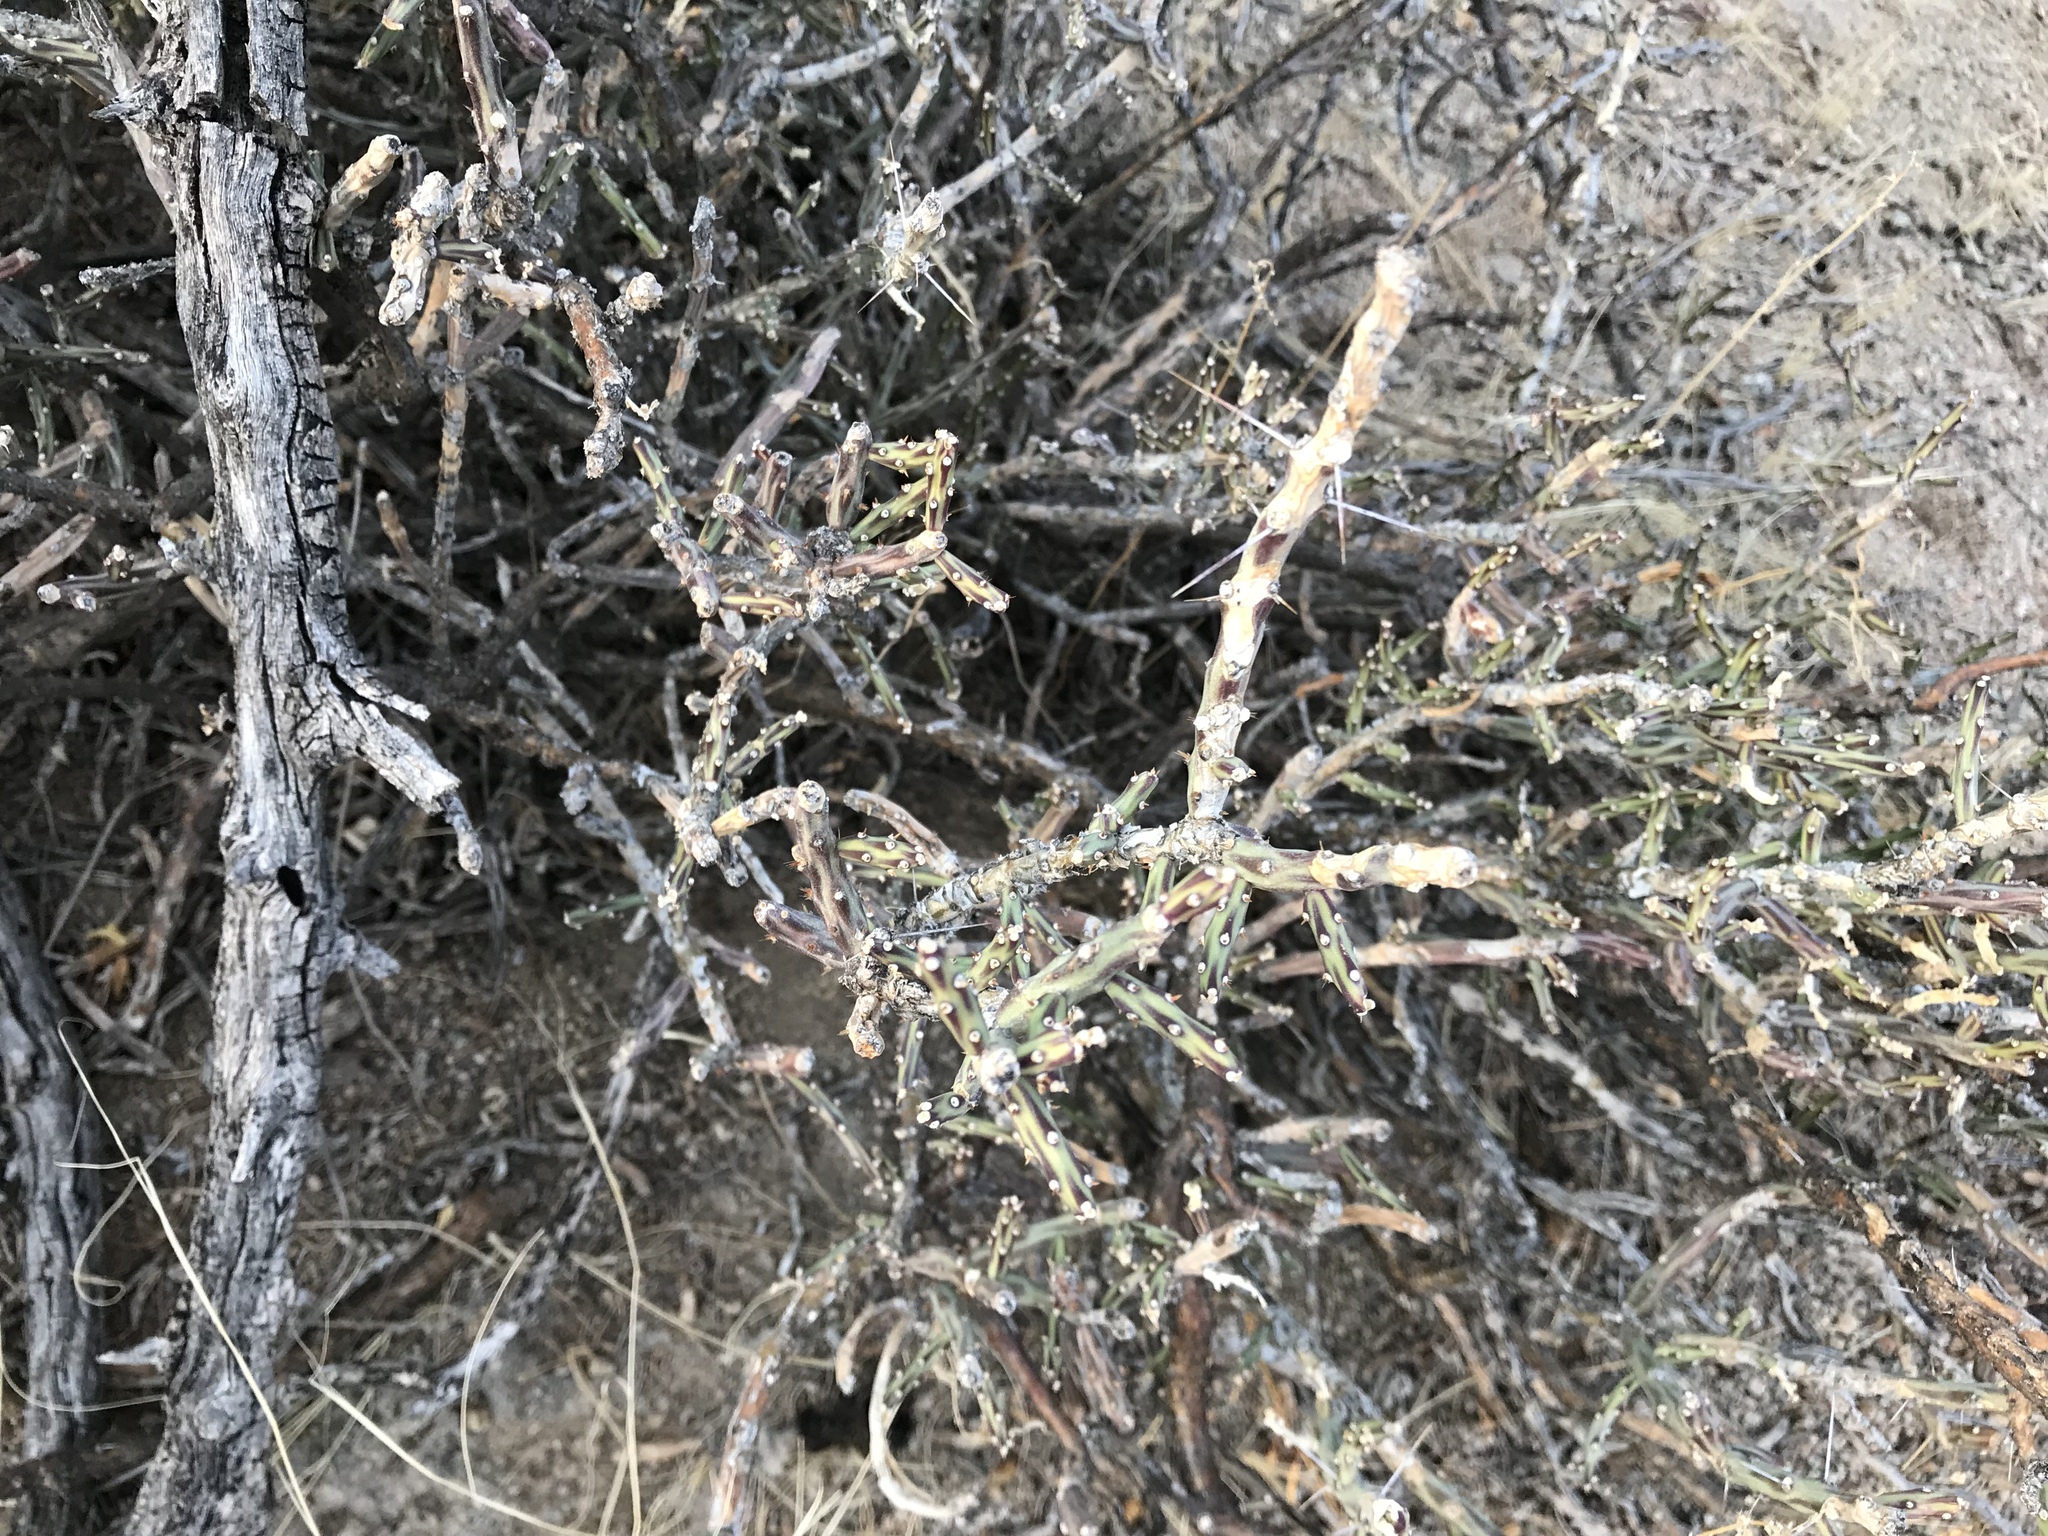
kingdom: Plantae
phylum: Tracheophyta
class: Magnoliopsida
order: Caryophyllales
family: Cactaceae
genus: Cylindropuntia
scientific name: Cylindropuntia leptocaulis
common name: Christmas cactus
